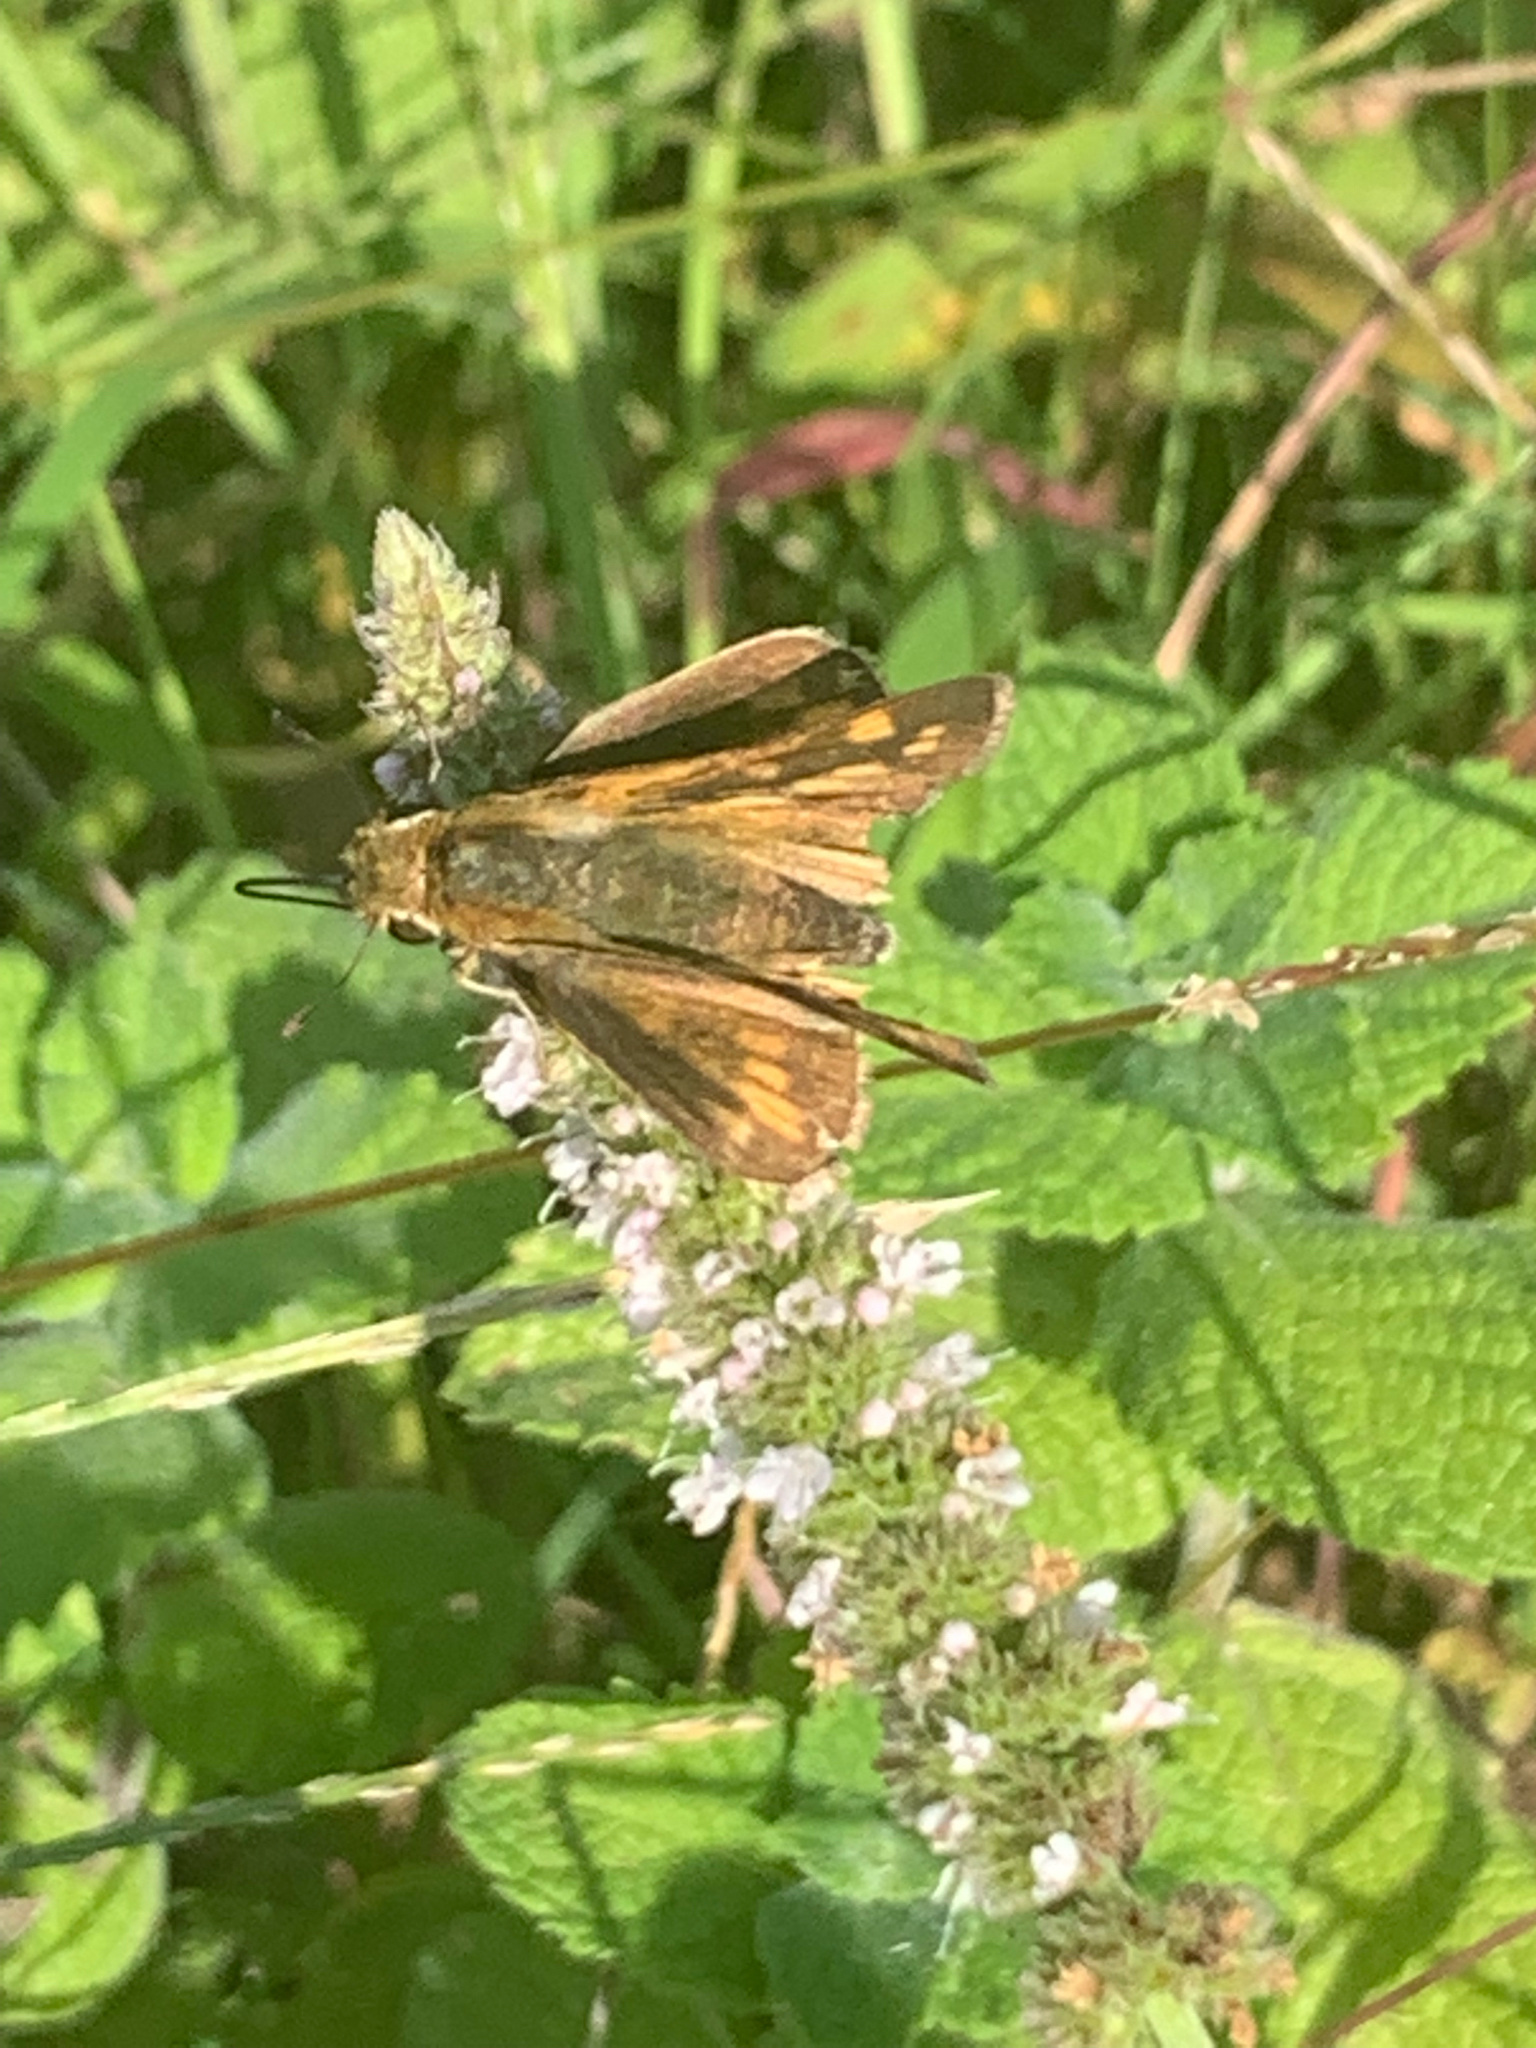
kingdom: Animalia
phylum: Arthropoda
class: Insecta
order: Lepidoptera
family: Hesperiidae
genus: Hylephila
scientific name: Hylephila phyleus
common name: Fiery skipper
